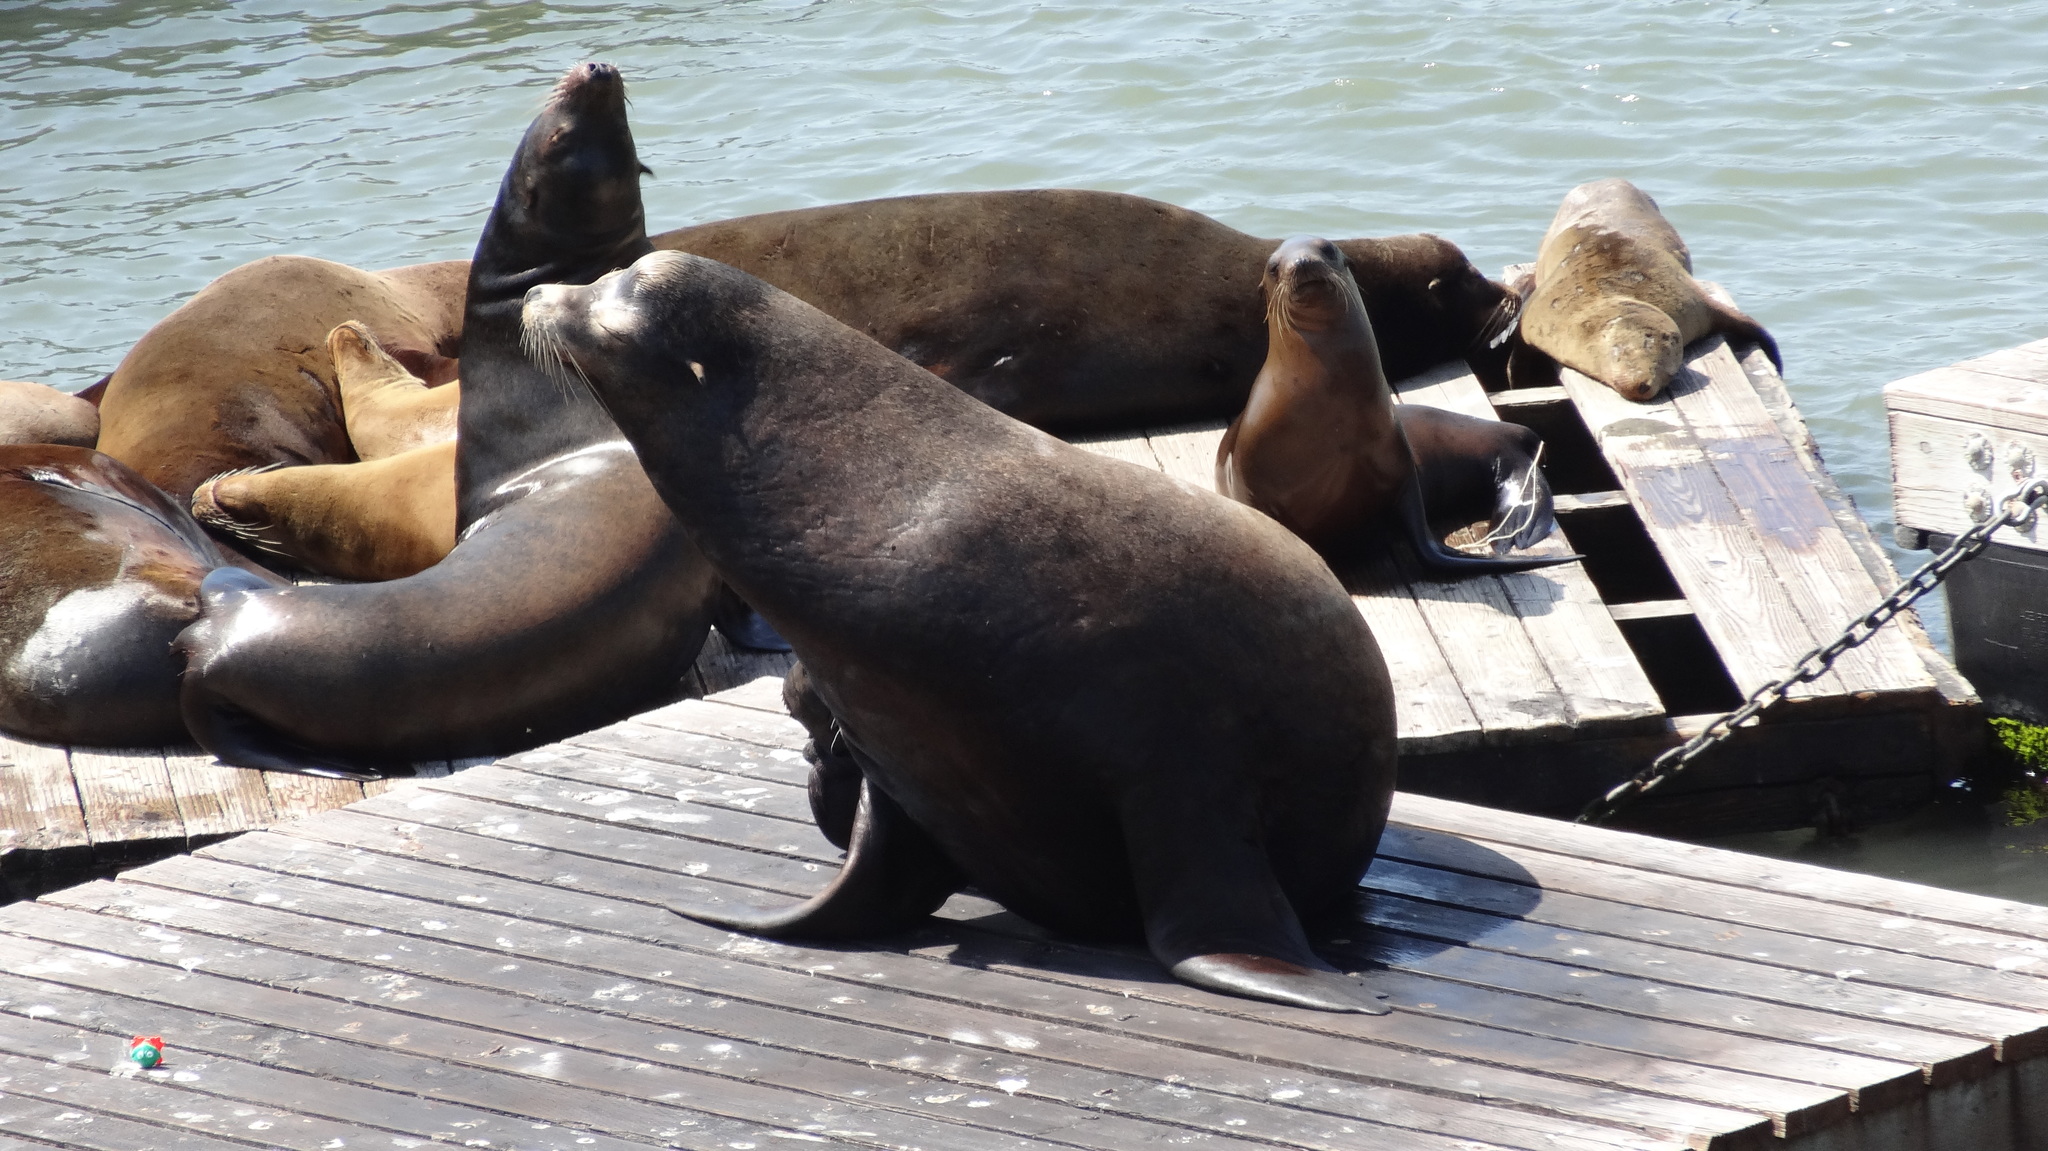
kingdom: Animalia
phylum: Chordata
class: Mammalia
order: Carnivora
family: Otariidae
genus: Zalophus
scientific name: Zalophus californianus
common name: California sea lion
